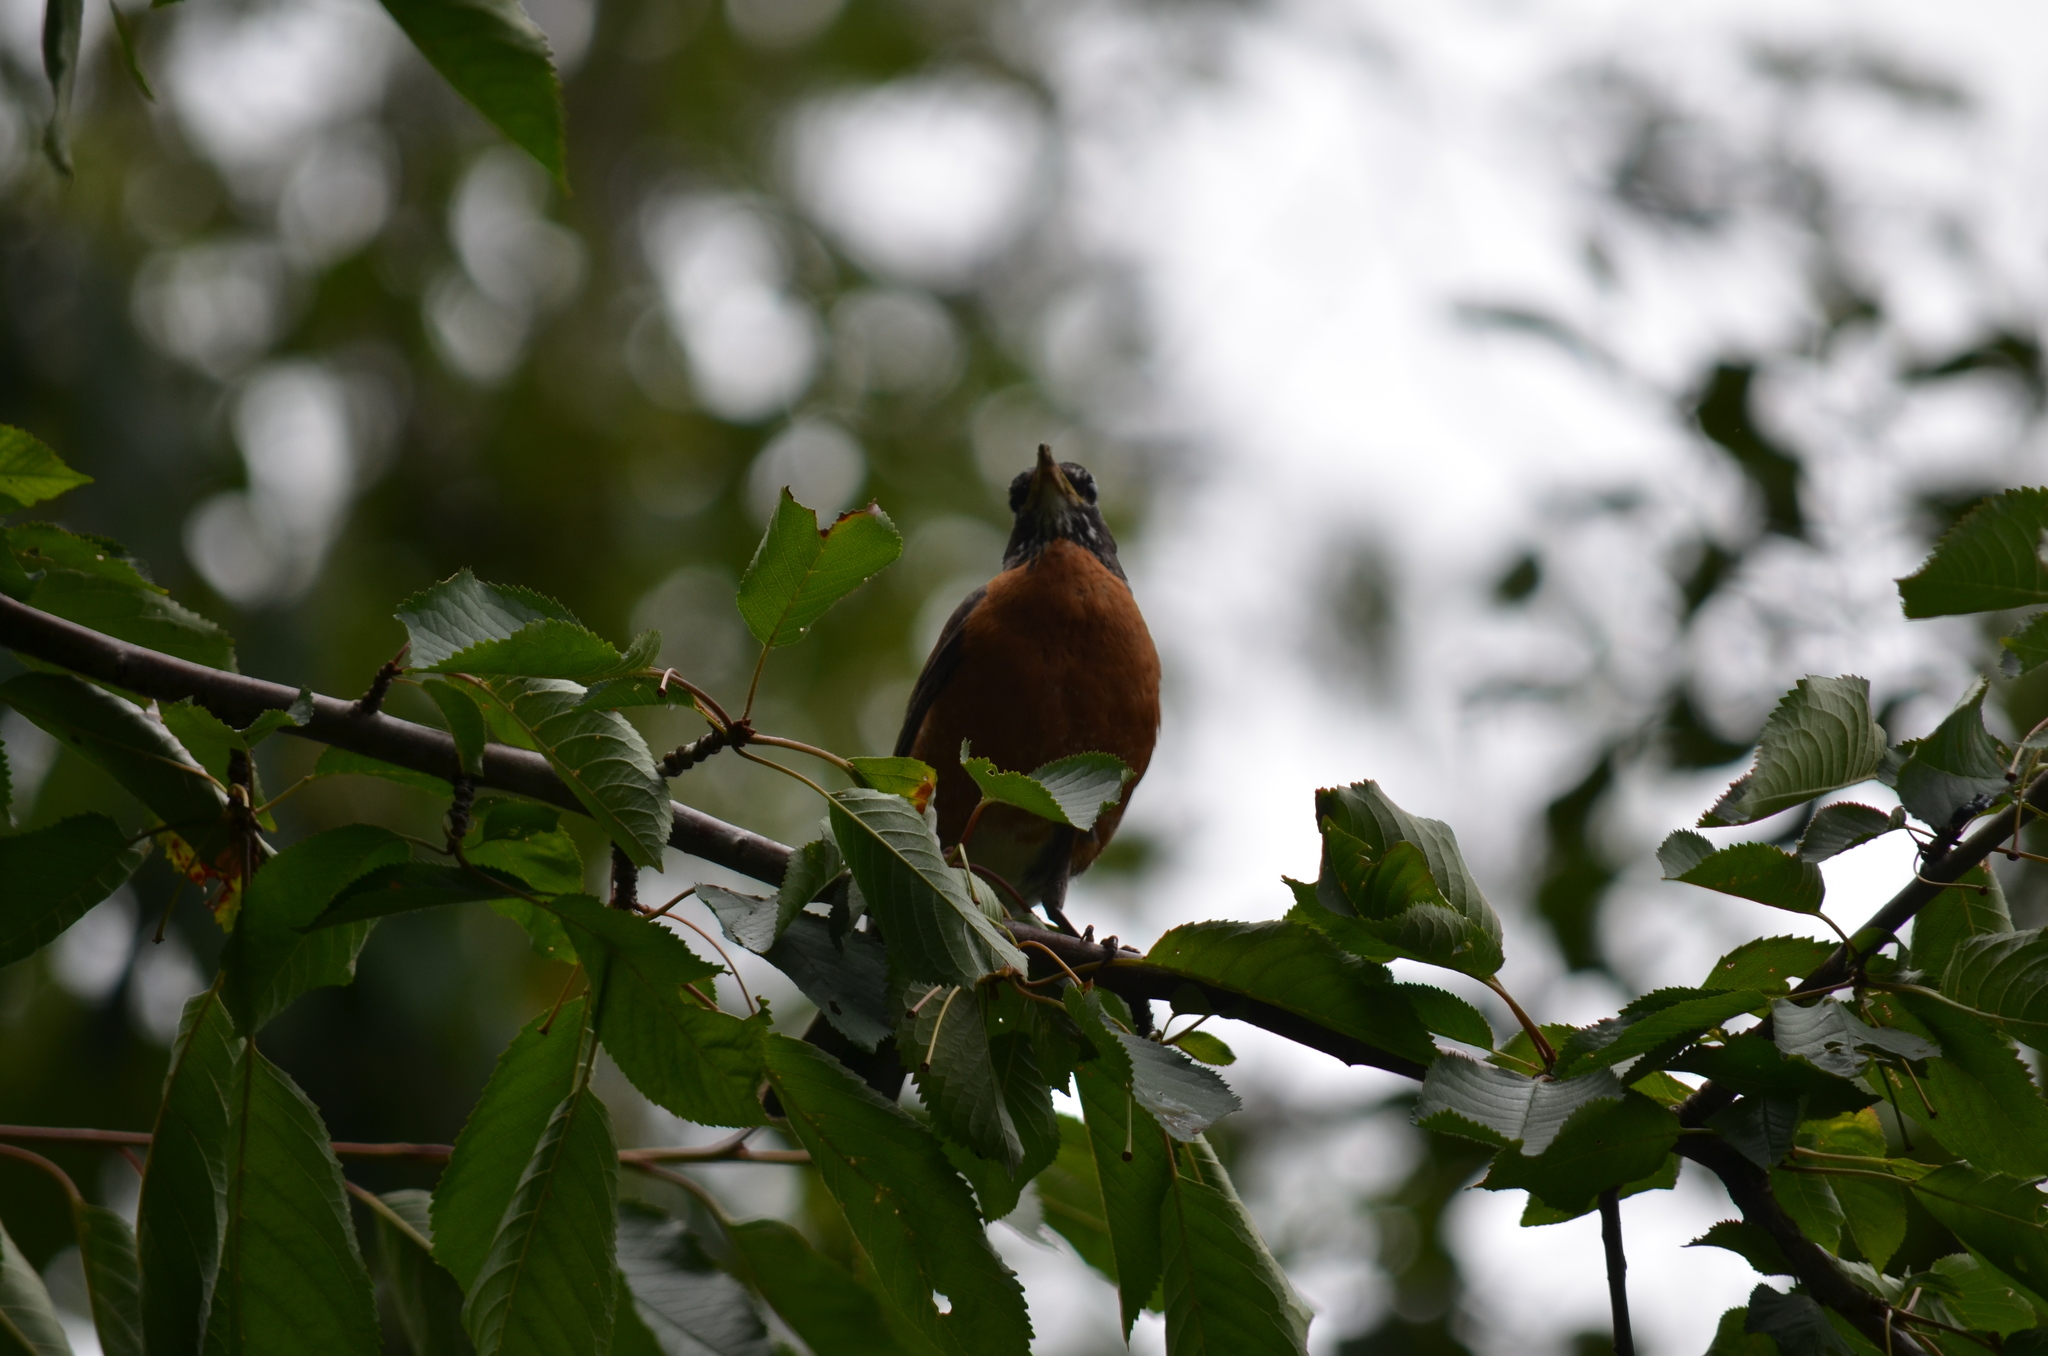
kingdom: Animalia
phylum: Chordata
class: Aves
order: Passeriformes
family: Turdidae
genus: Turdus
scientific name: Turdus migratorius
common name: American robin
